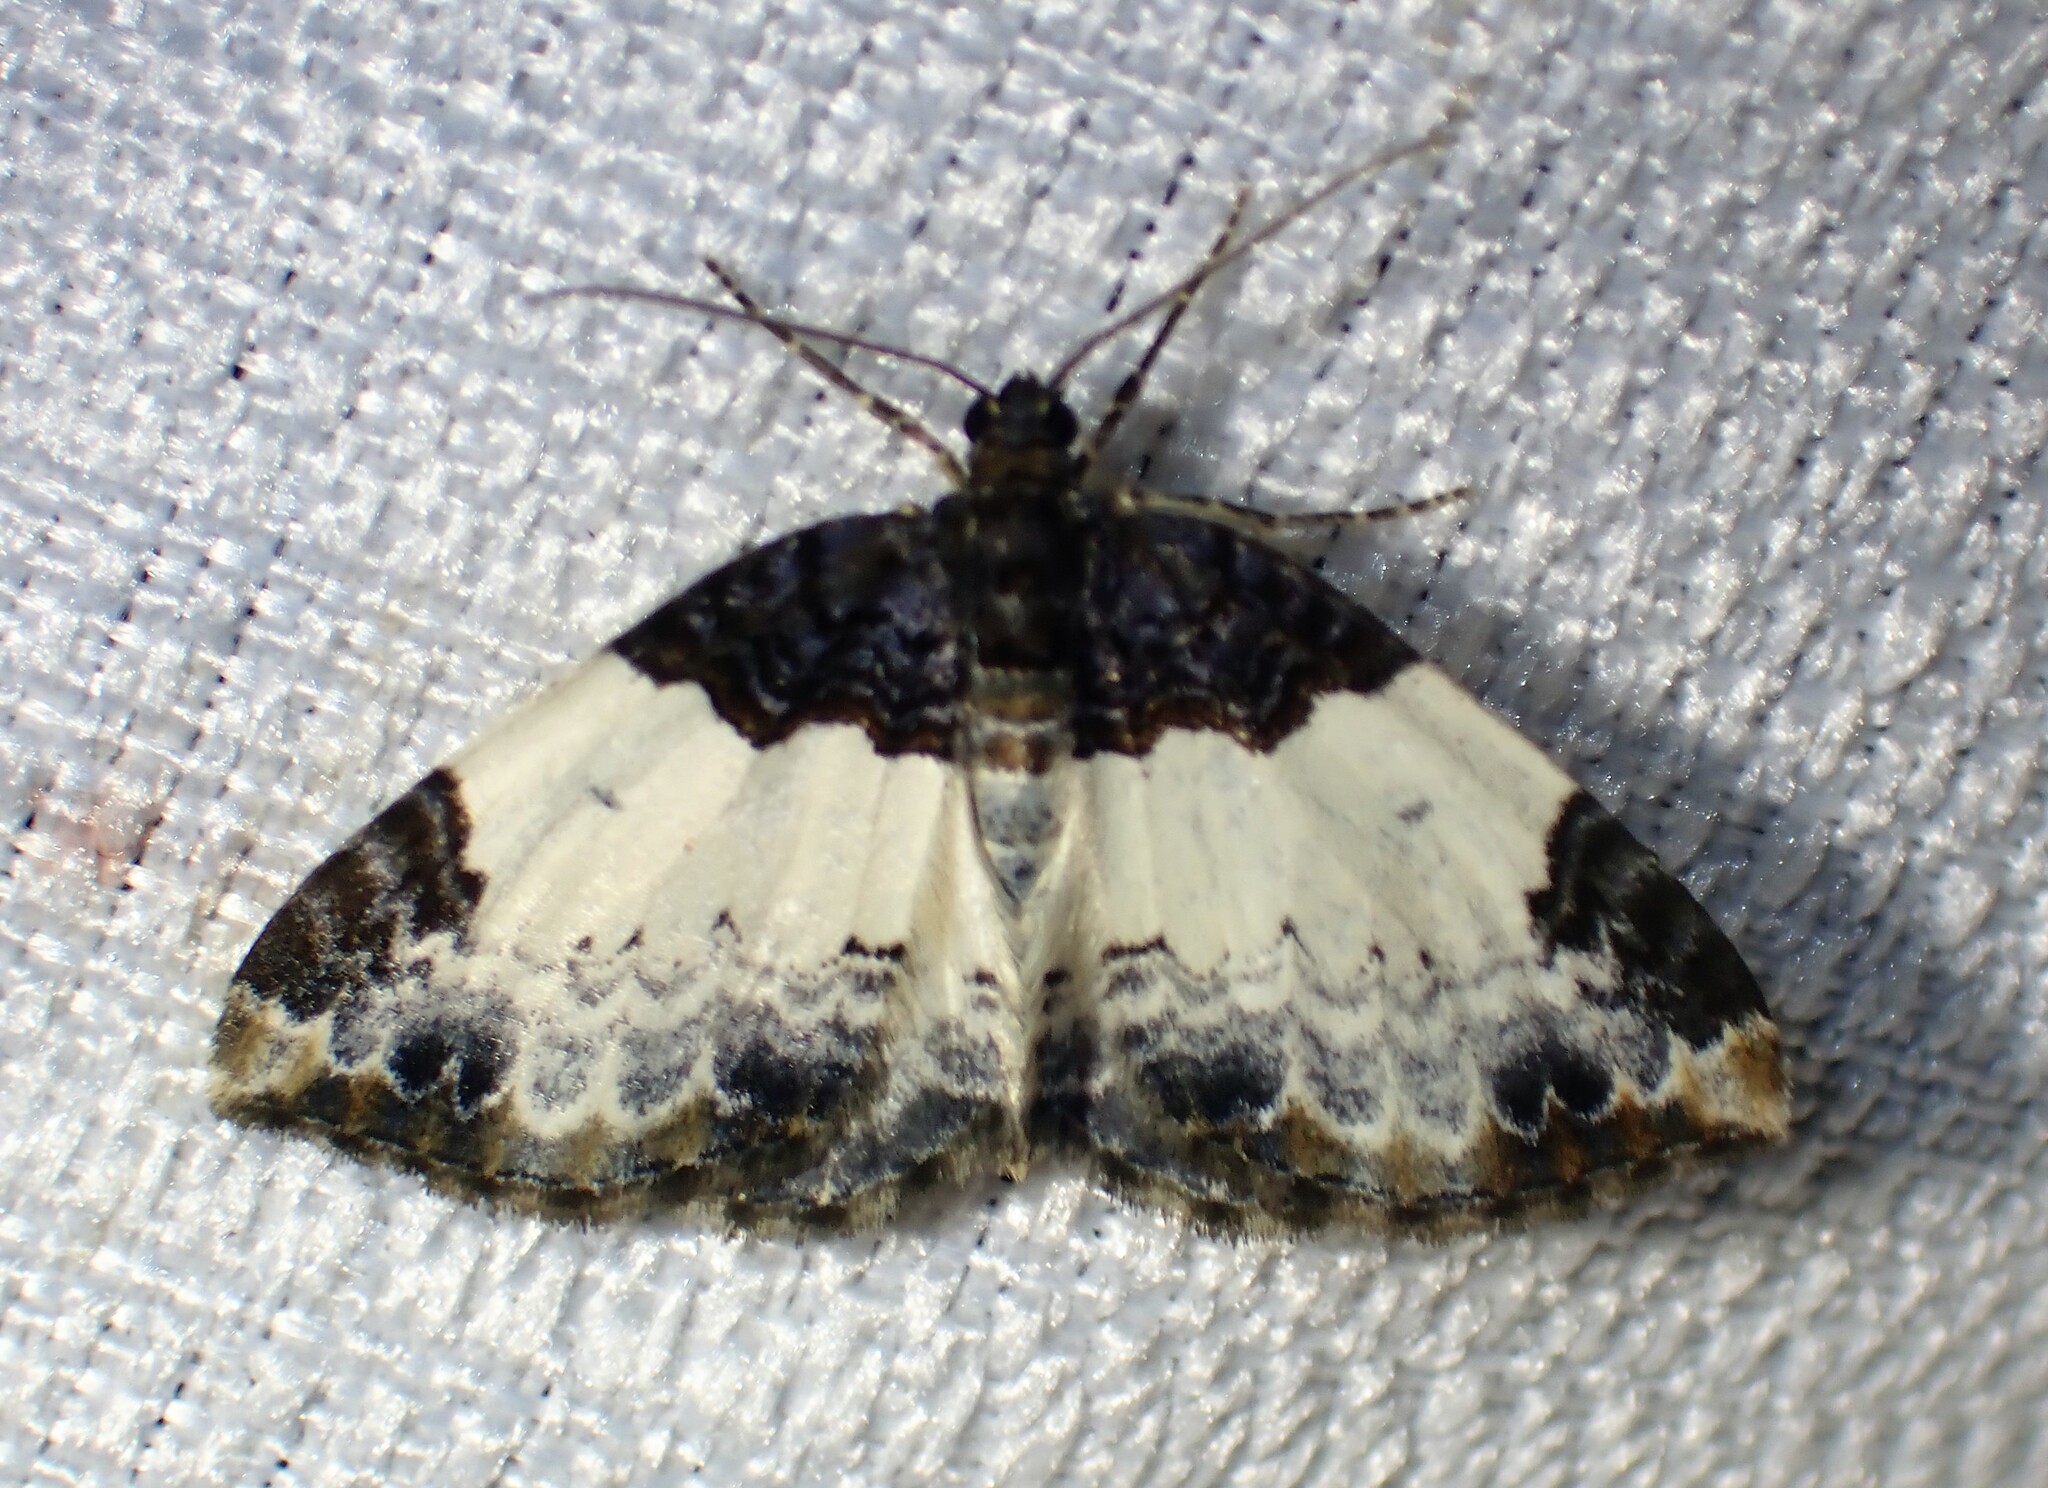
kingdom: Animalia
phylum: Arthropoda
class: Insecta
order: Lepidoptera
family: Geometridae
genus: Mesoleuca
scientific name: Mesoleuca ruficillata
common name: White-ribboned carpet moth
